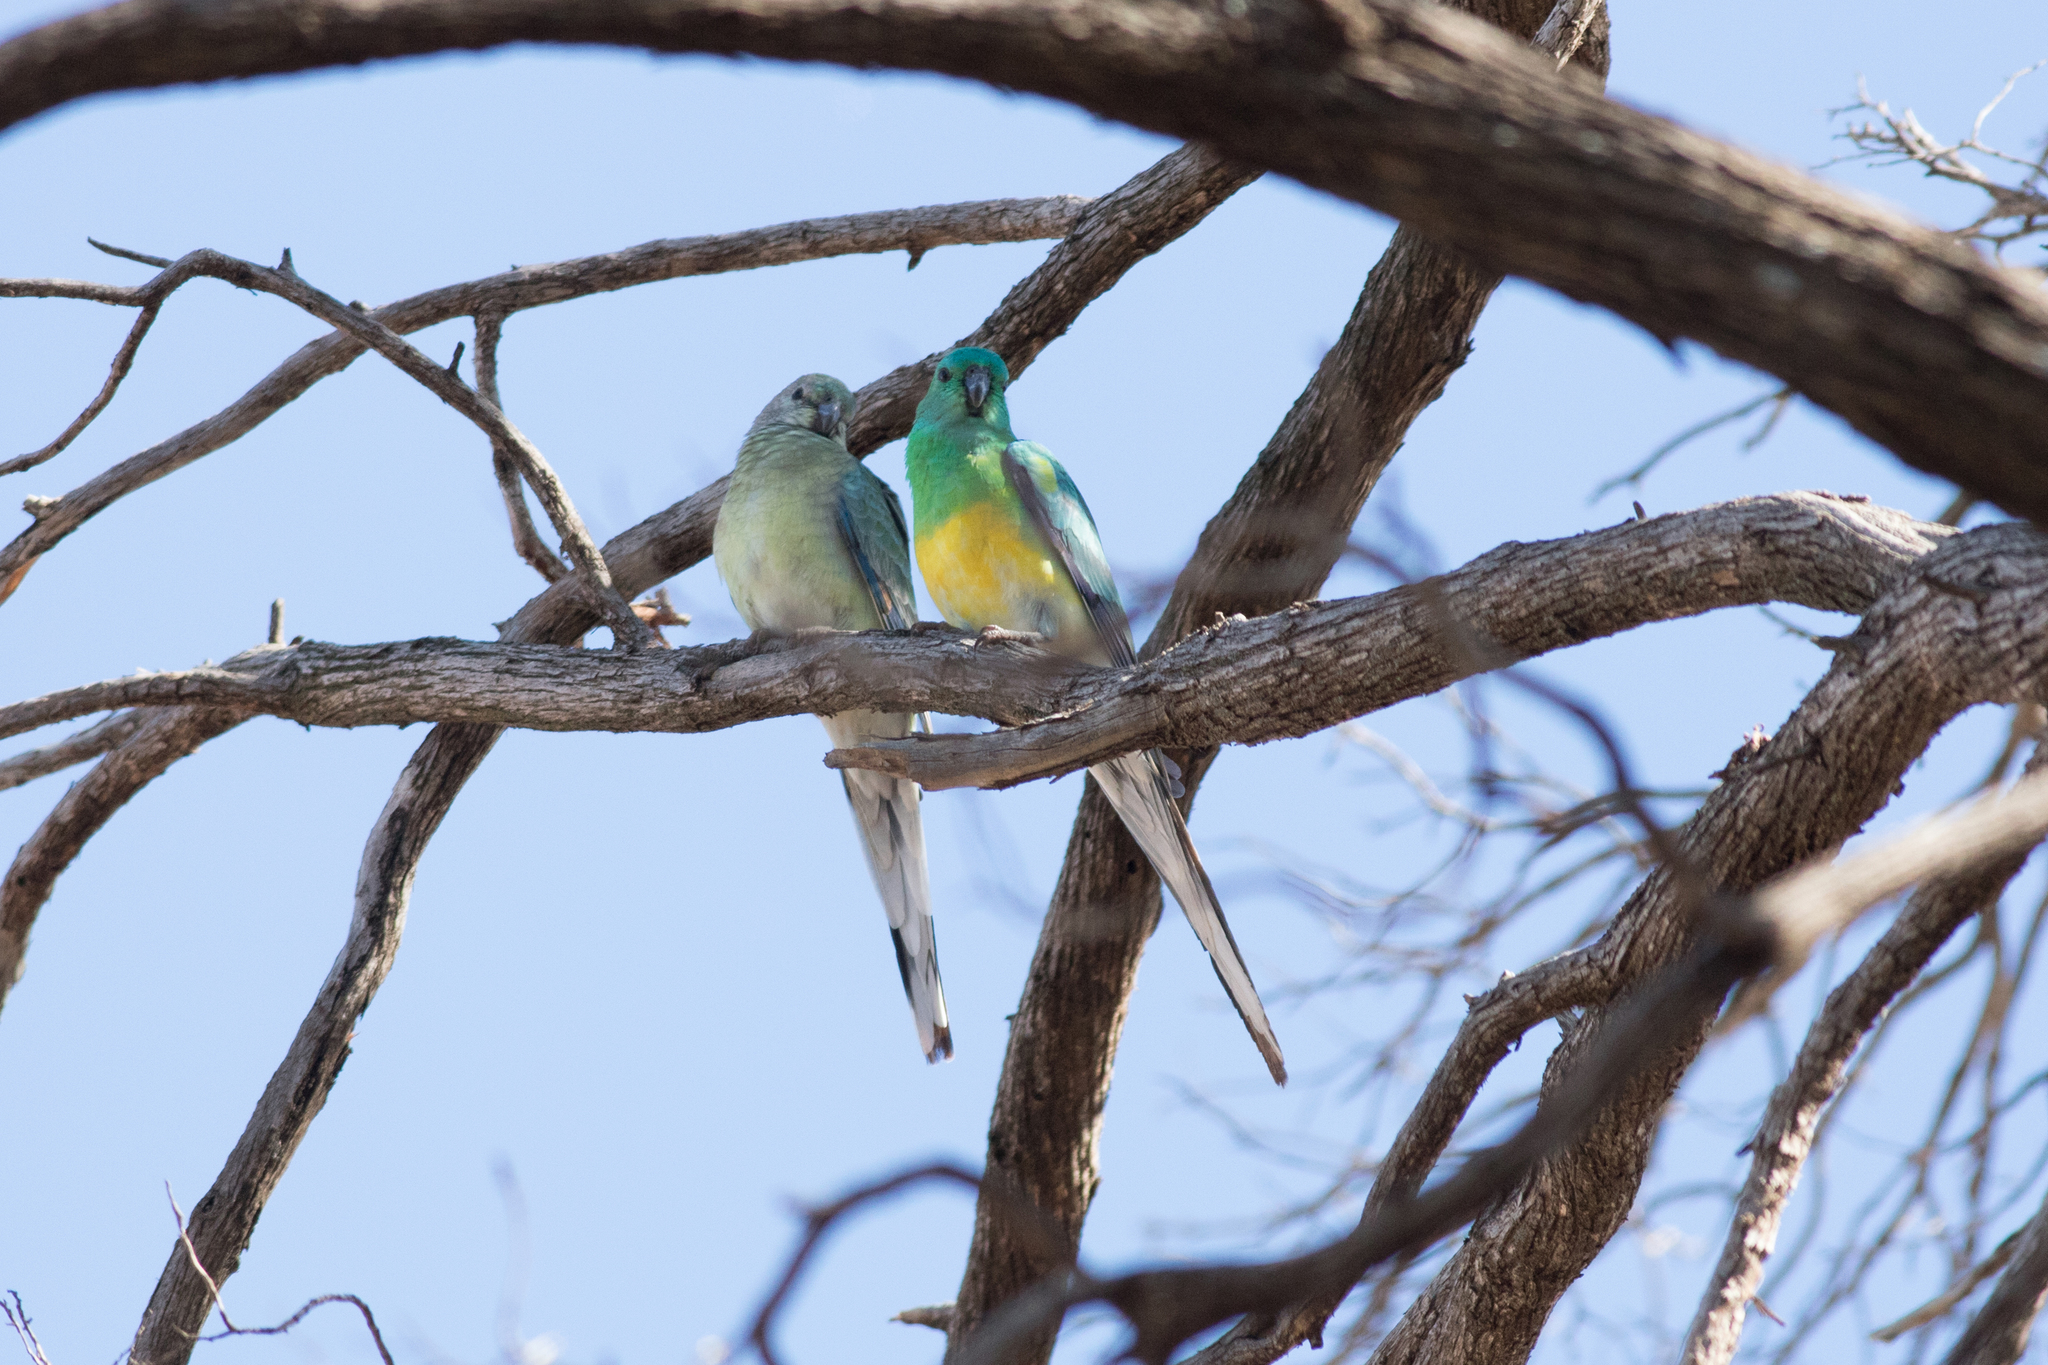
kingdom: Animalia
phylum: Chordata
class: Aves
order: Psittaciformes
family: Psittacidae
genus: Psephotus
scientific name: Psephotus haematonotus
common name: Red-rumped parrot
